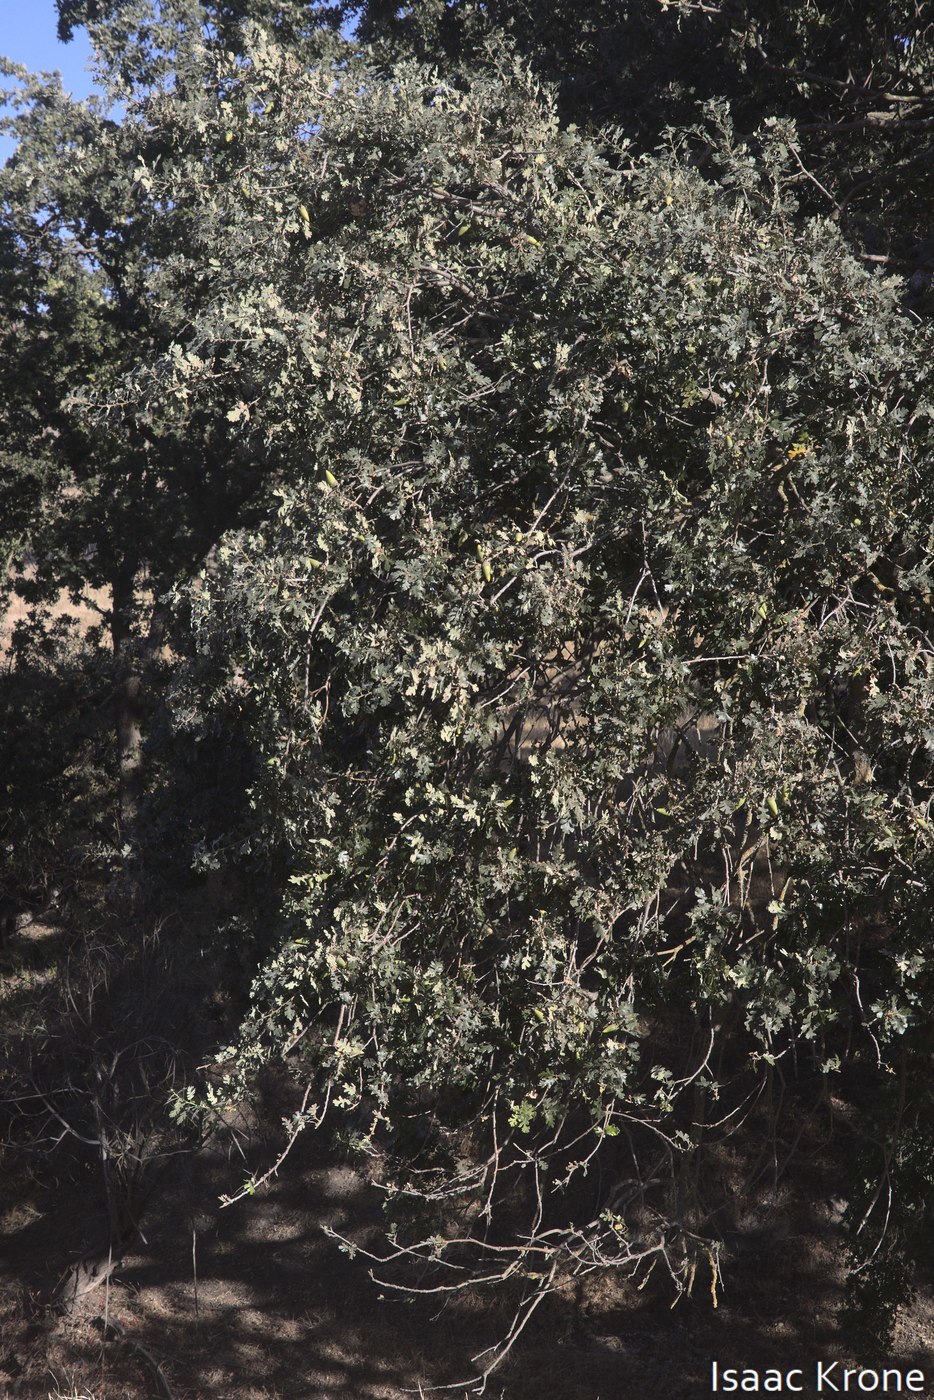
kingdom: Plantae
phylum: Tracheophyta
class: Magnoliopsida
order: Fagales
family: Fagaceae
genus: Quercus
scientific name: Quercus lobata
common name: Valley oak
